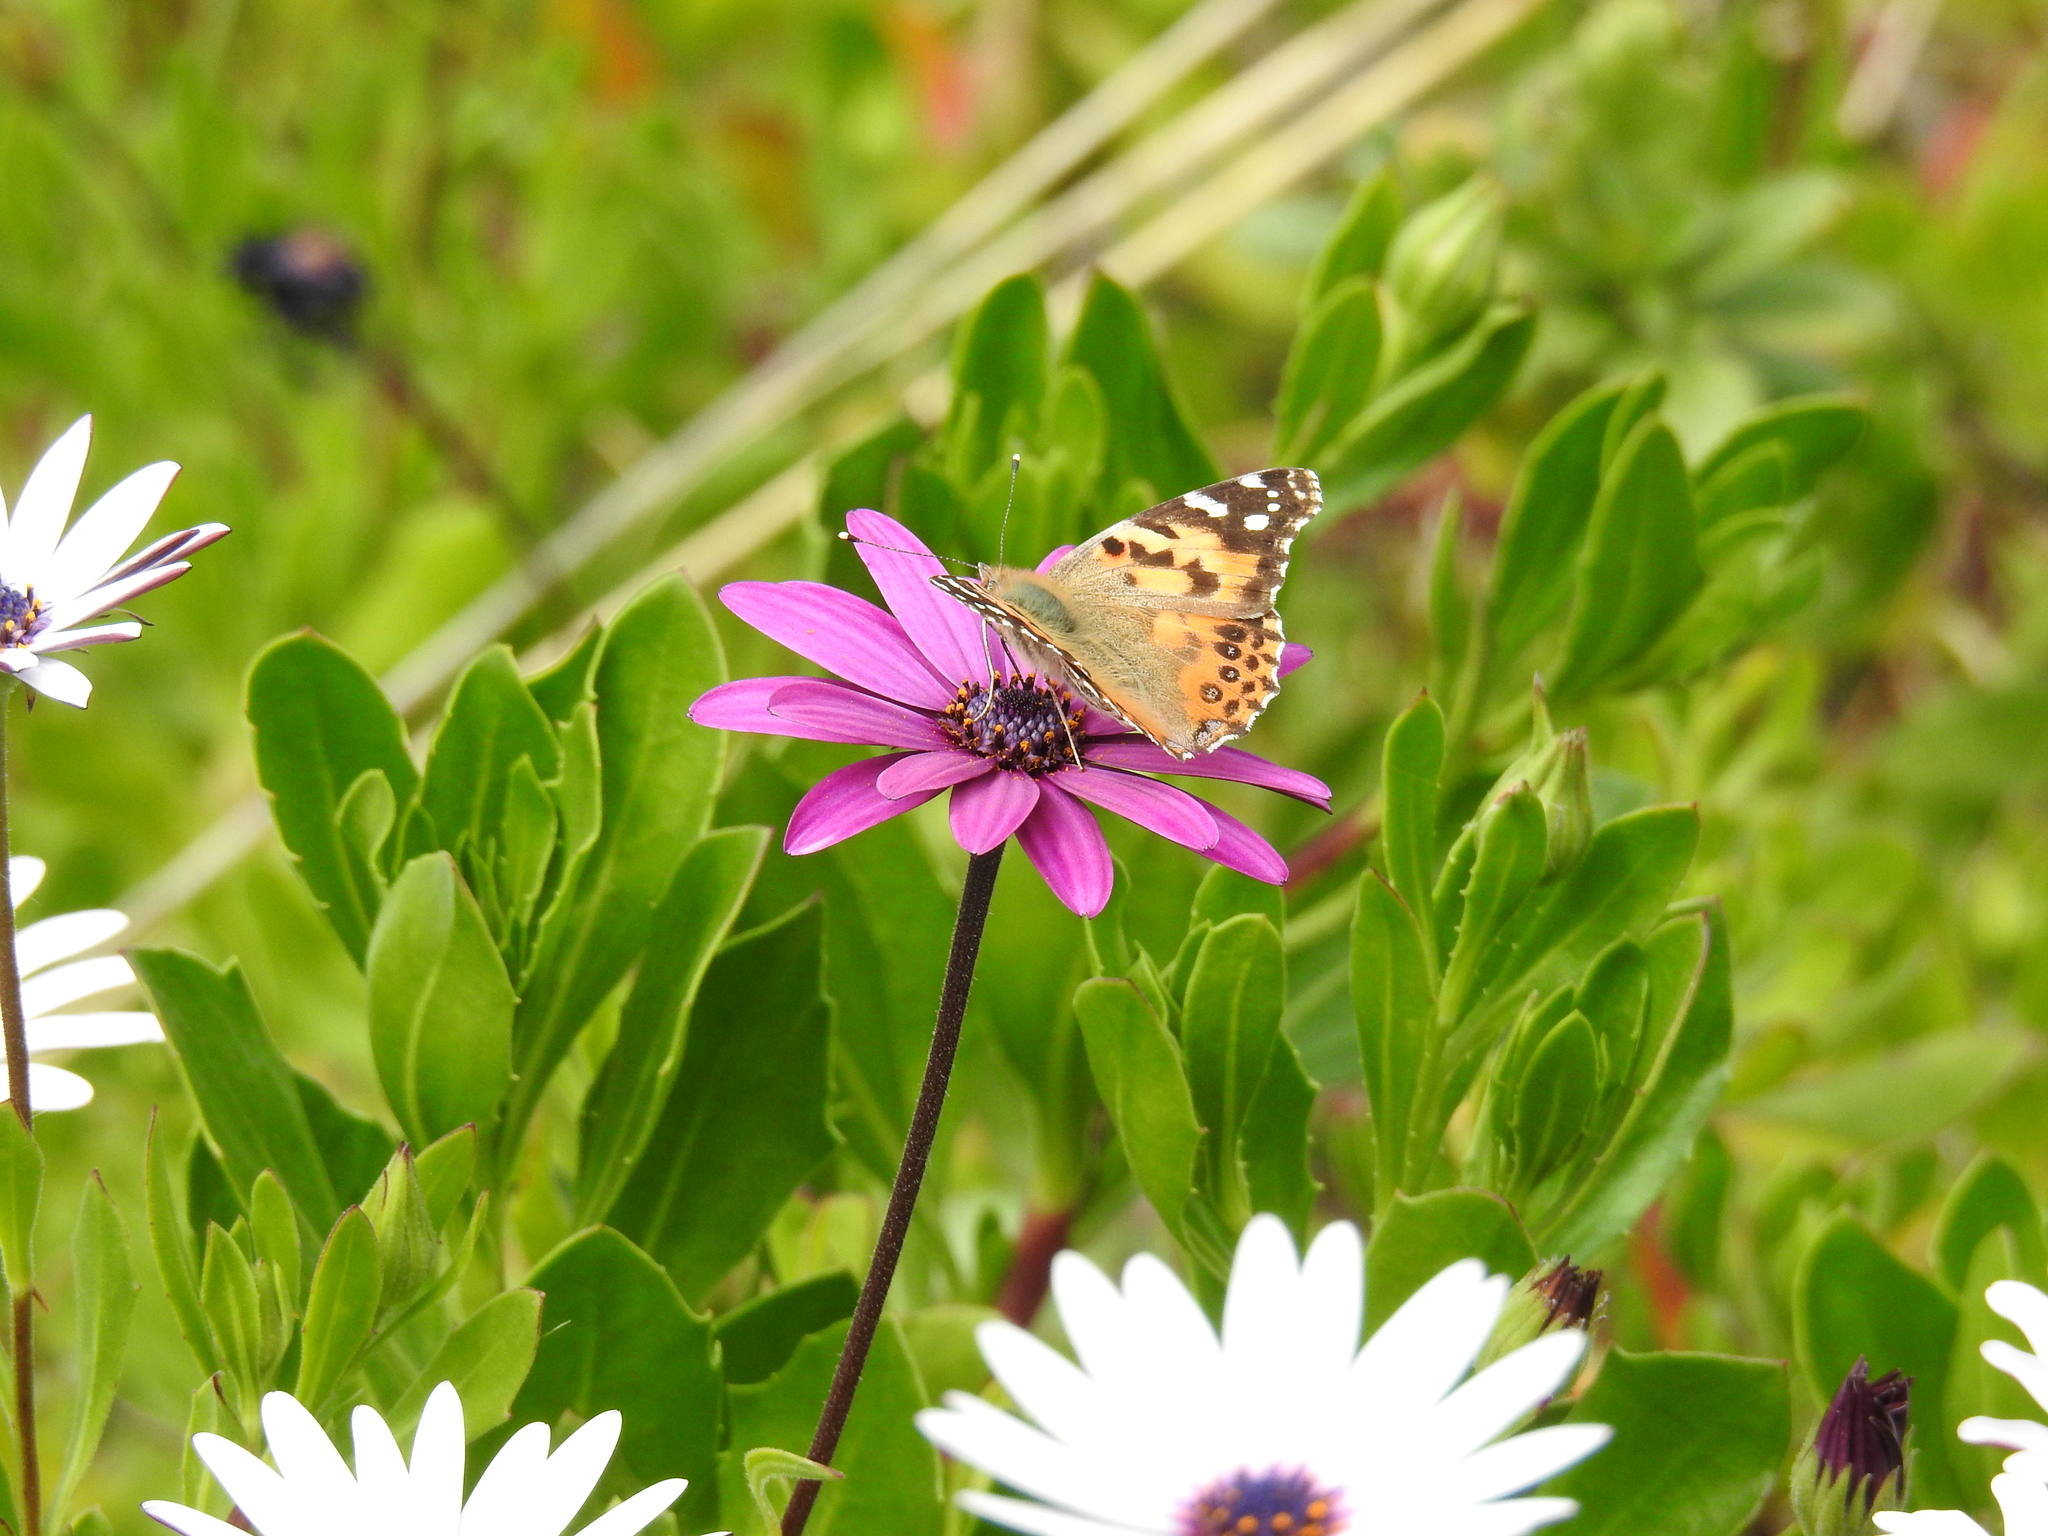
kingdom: Animalia
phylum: Arthropoda
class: Insecta
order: Lepidoptera
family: Nymphalidae
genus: Vanessa
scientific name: Vanessa cardui
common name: Painted lady
